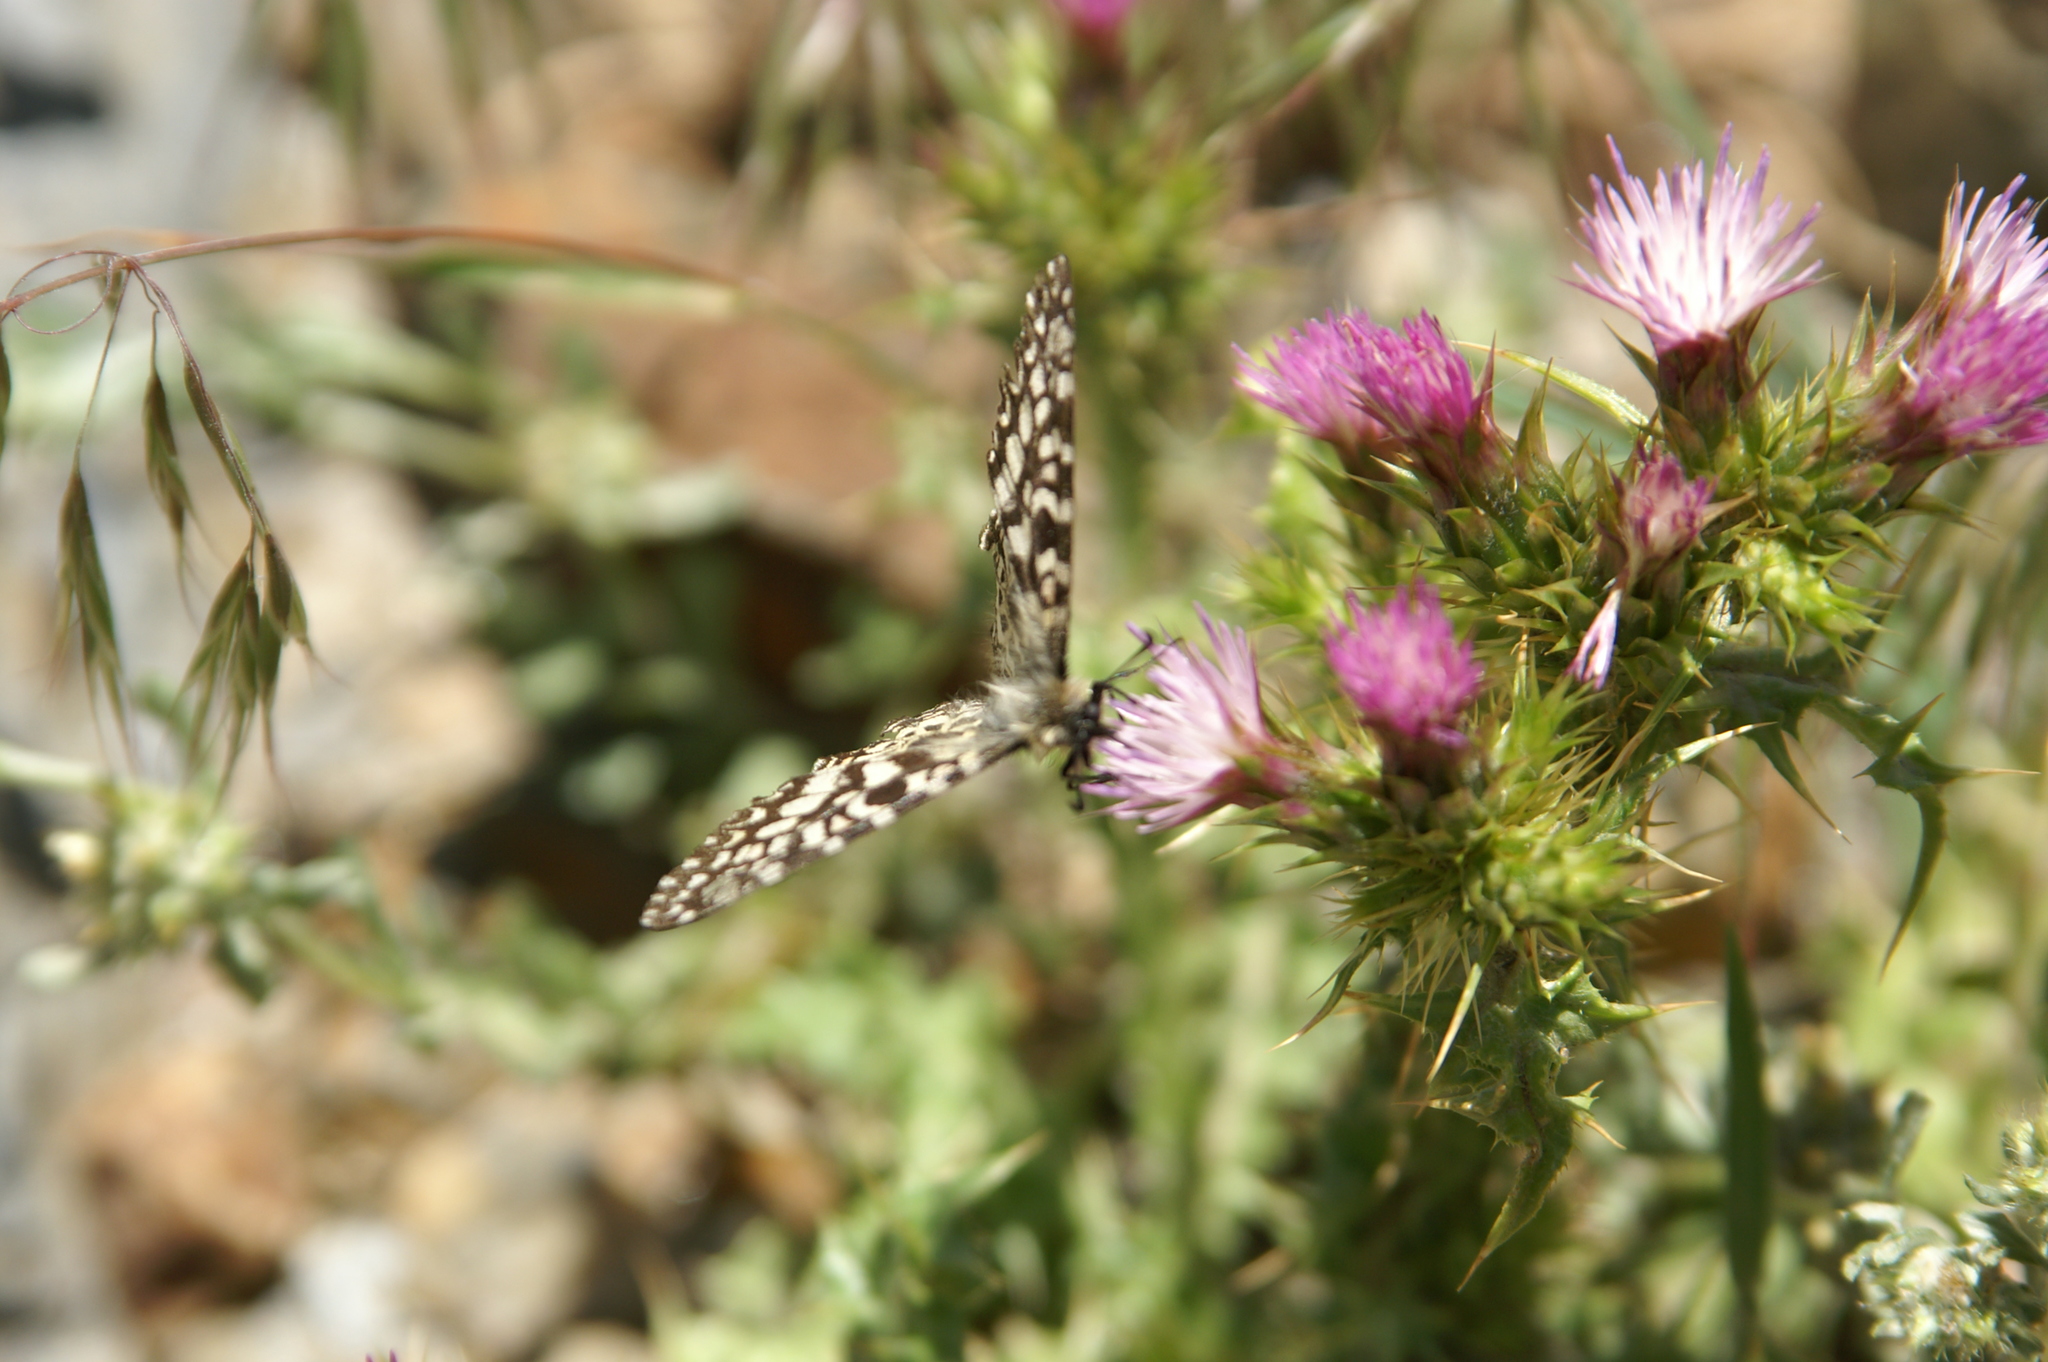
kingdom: Animalia
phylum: Arthropoda
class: Insecta
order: Lepidoptera
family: Papilionidae
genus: Zerynthia
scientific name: Zerynthia rumina
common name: Spanish festoon
